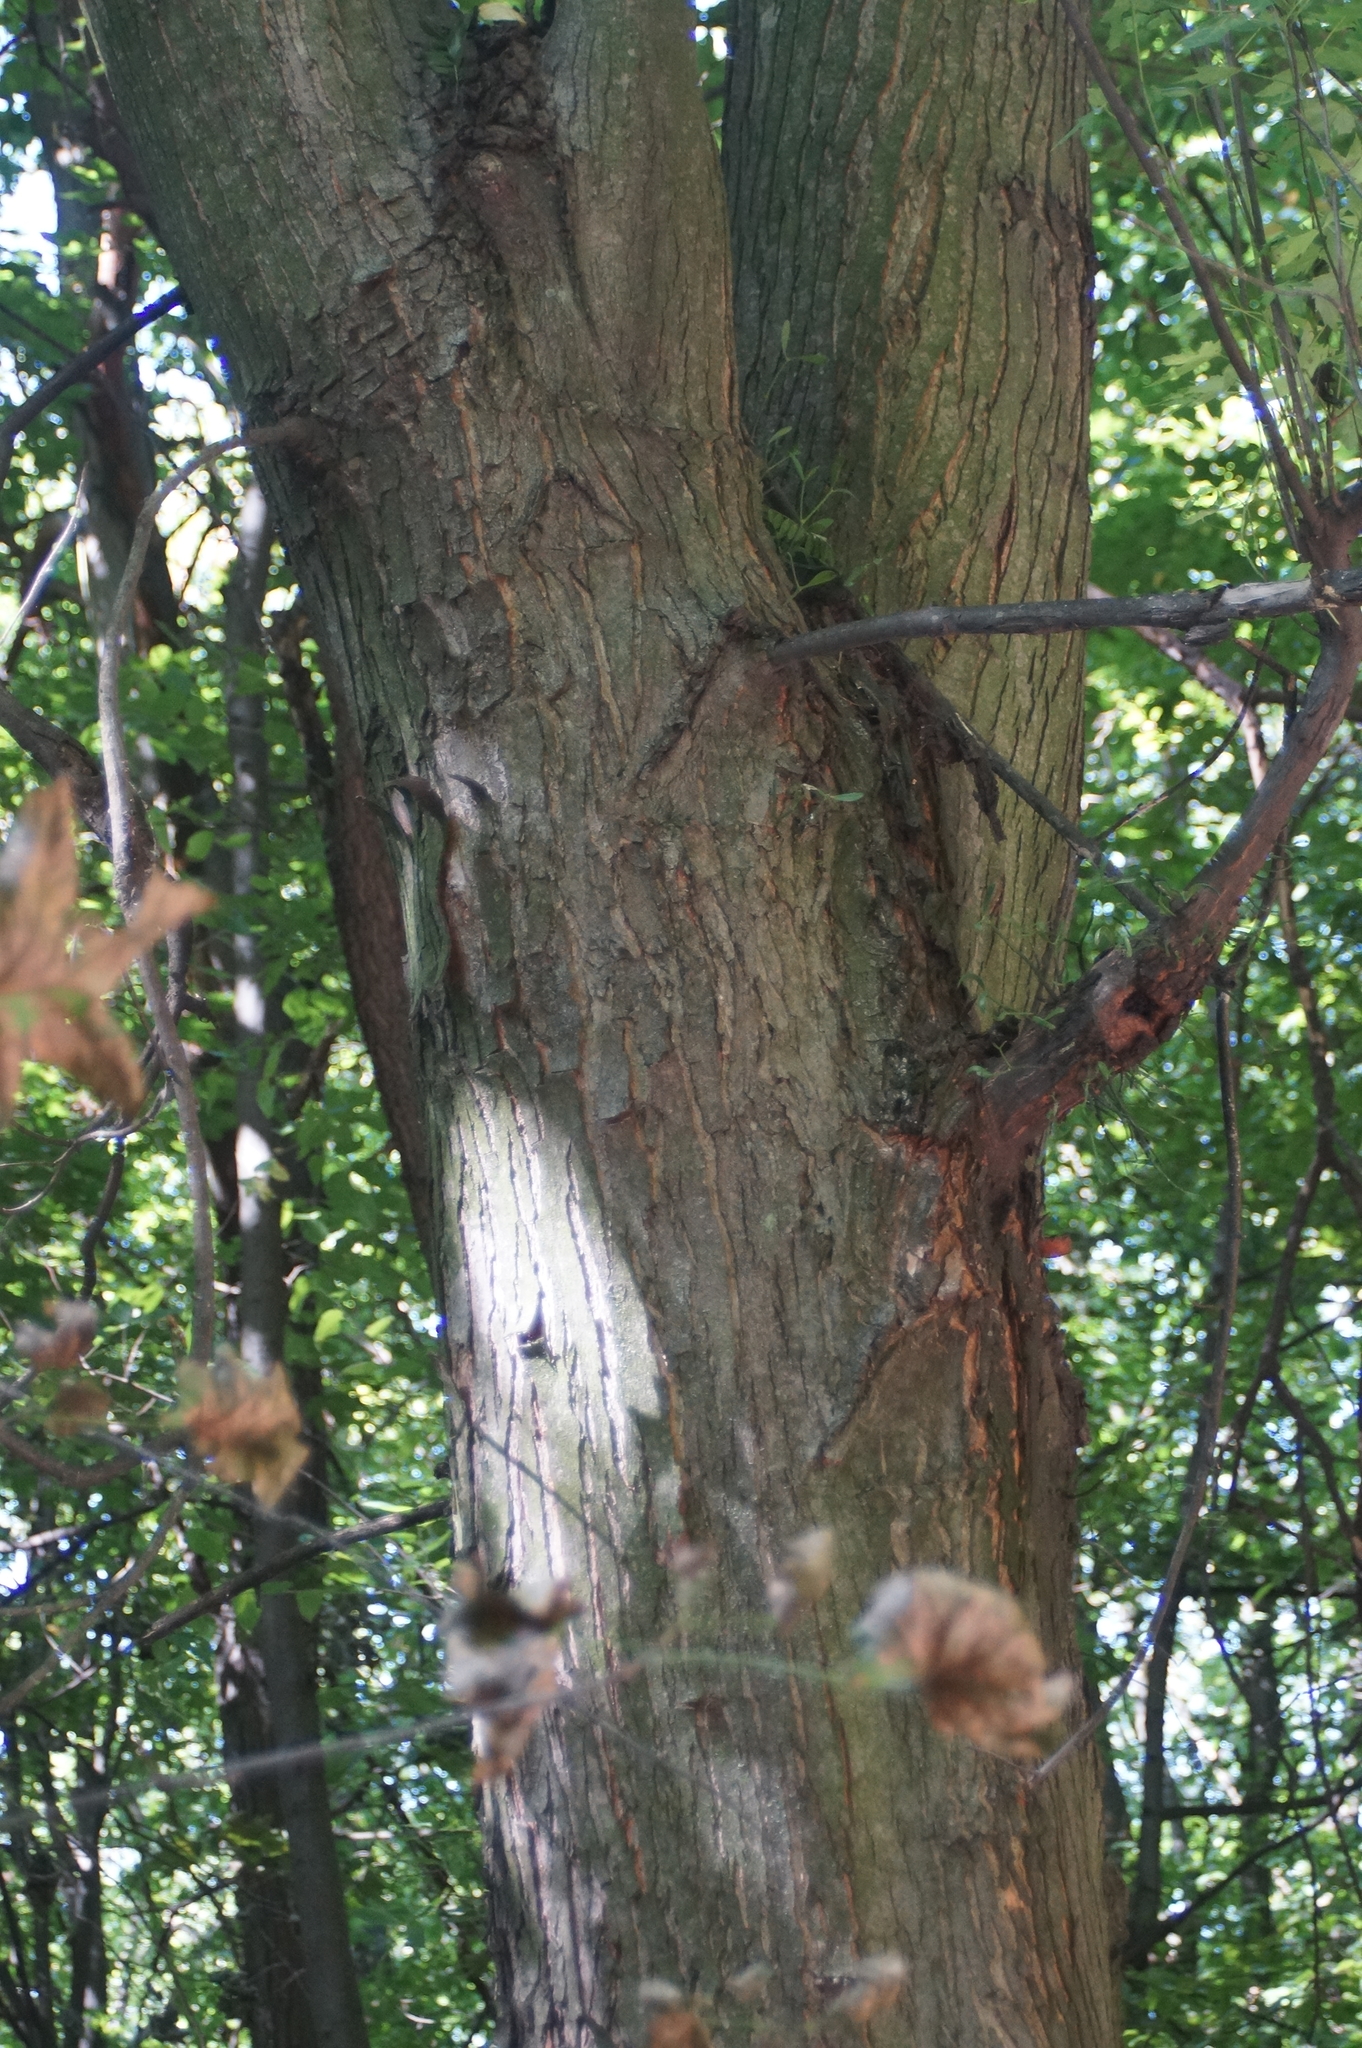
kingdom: Plantae
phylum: Tracheophyta
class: Magnoliopsida
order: Sapindales
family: Sapindaceae
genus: Acer
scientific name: Acer saccharinum
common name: Silver maple
